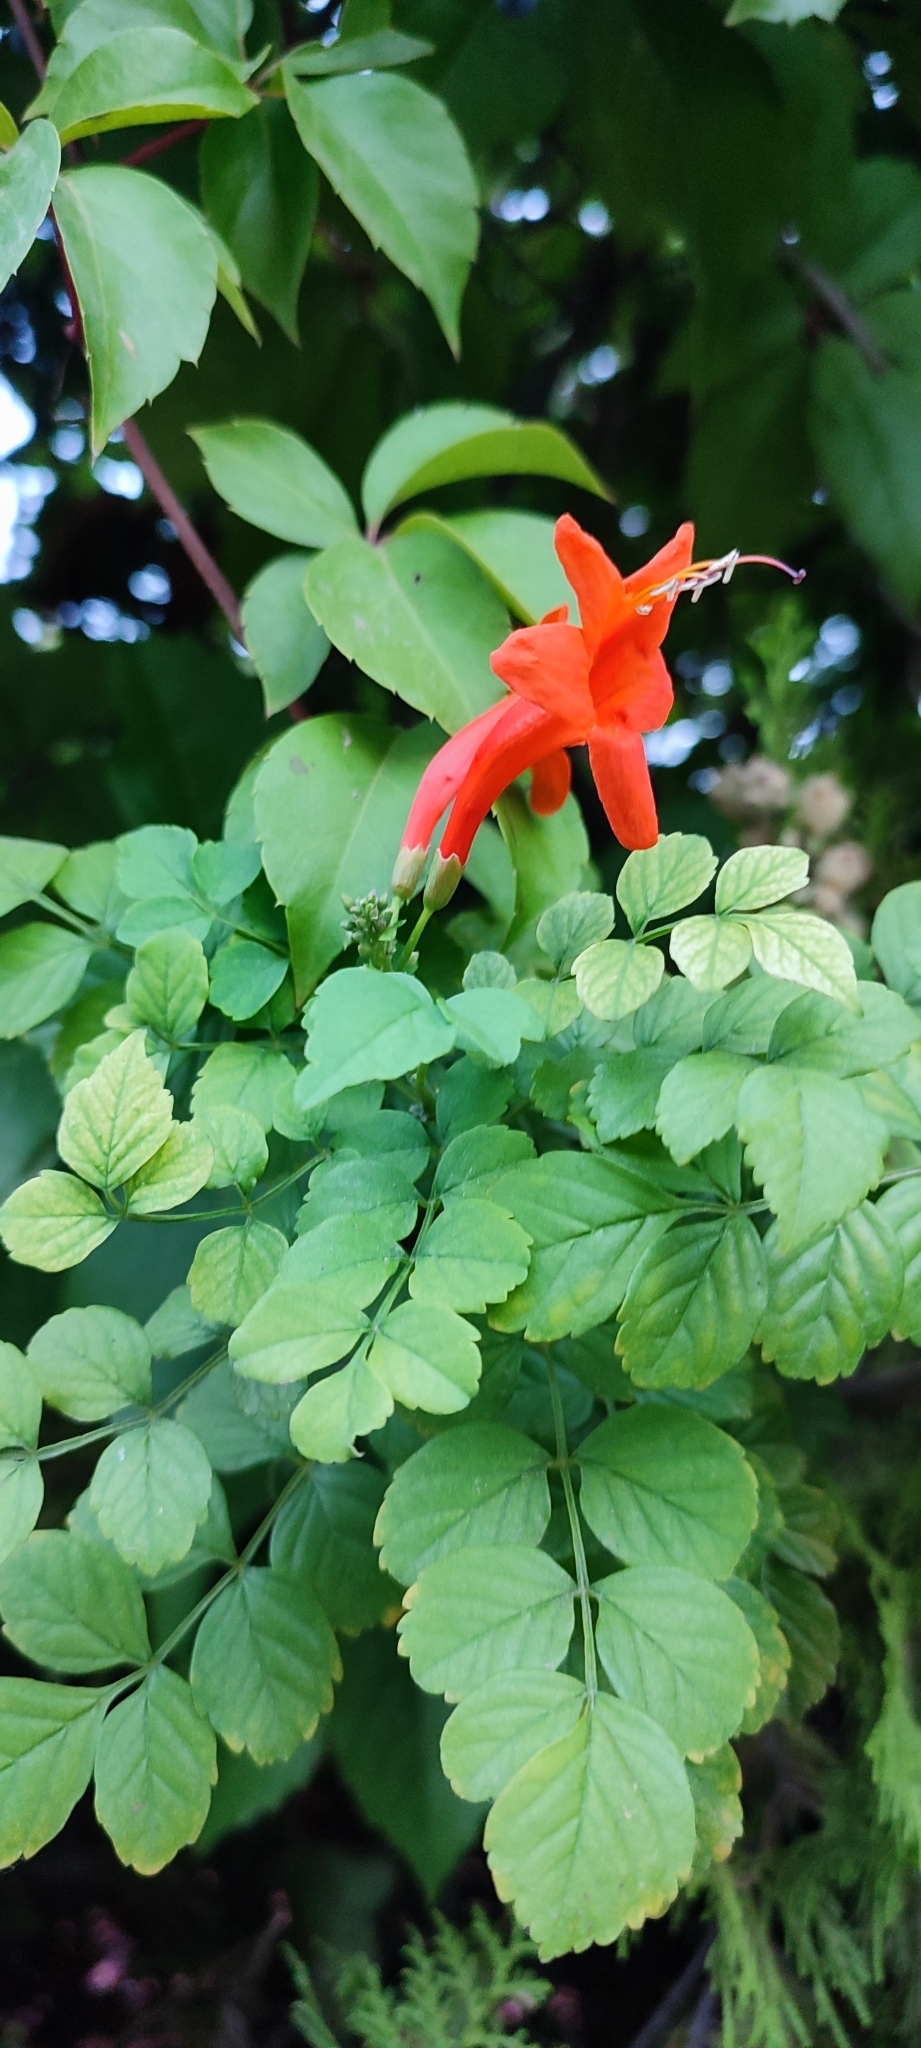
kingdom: Plantae
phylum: Tracheophyta
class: Magnoliopsida
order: Lamiales
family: Bignoniaceae
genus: Tecomaria
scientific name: Tecomaria capensis
